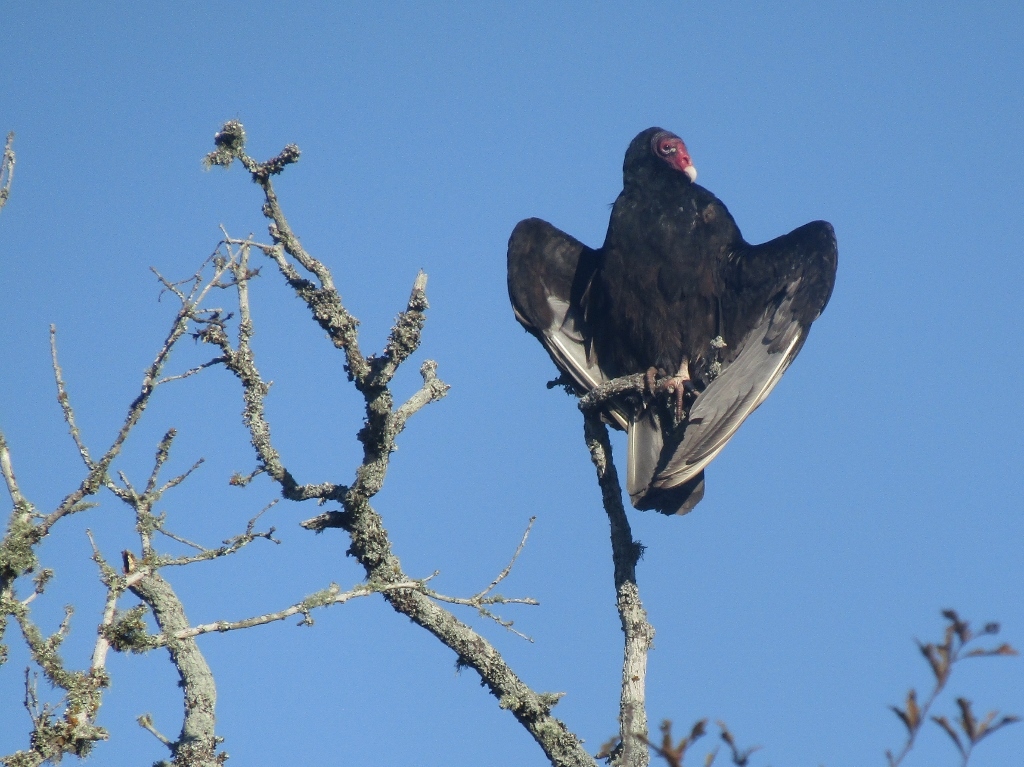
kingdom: Animalia
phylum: Chordata
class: Aves
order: Accipitriformes
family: Cathartidae
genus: Cathartes
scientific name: Cathartes aura
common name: Turkey vulture
